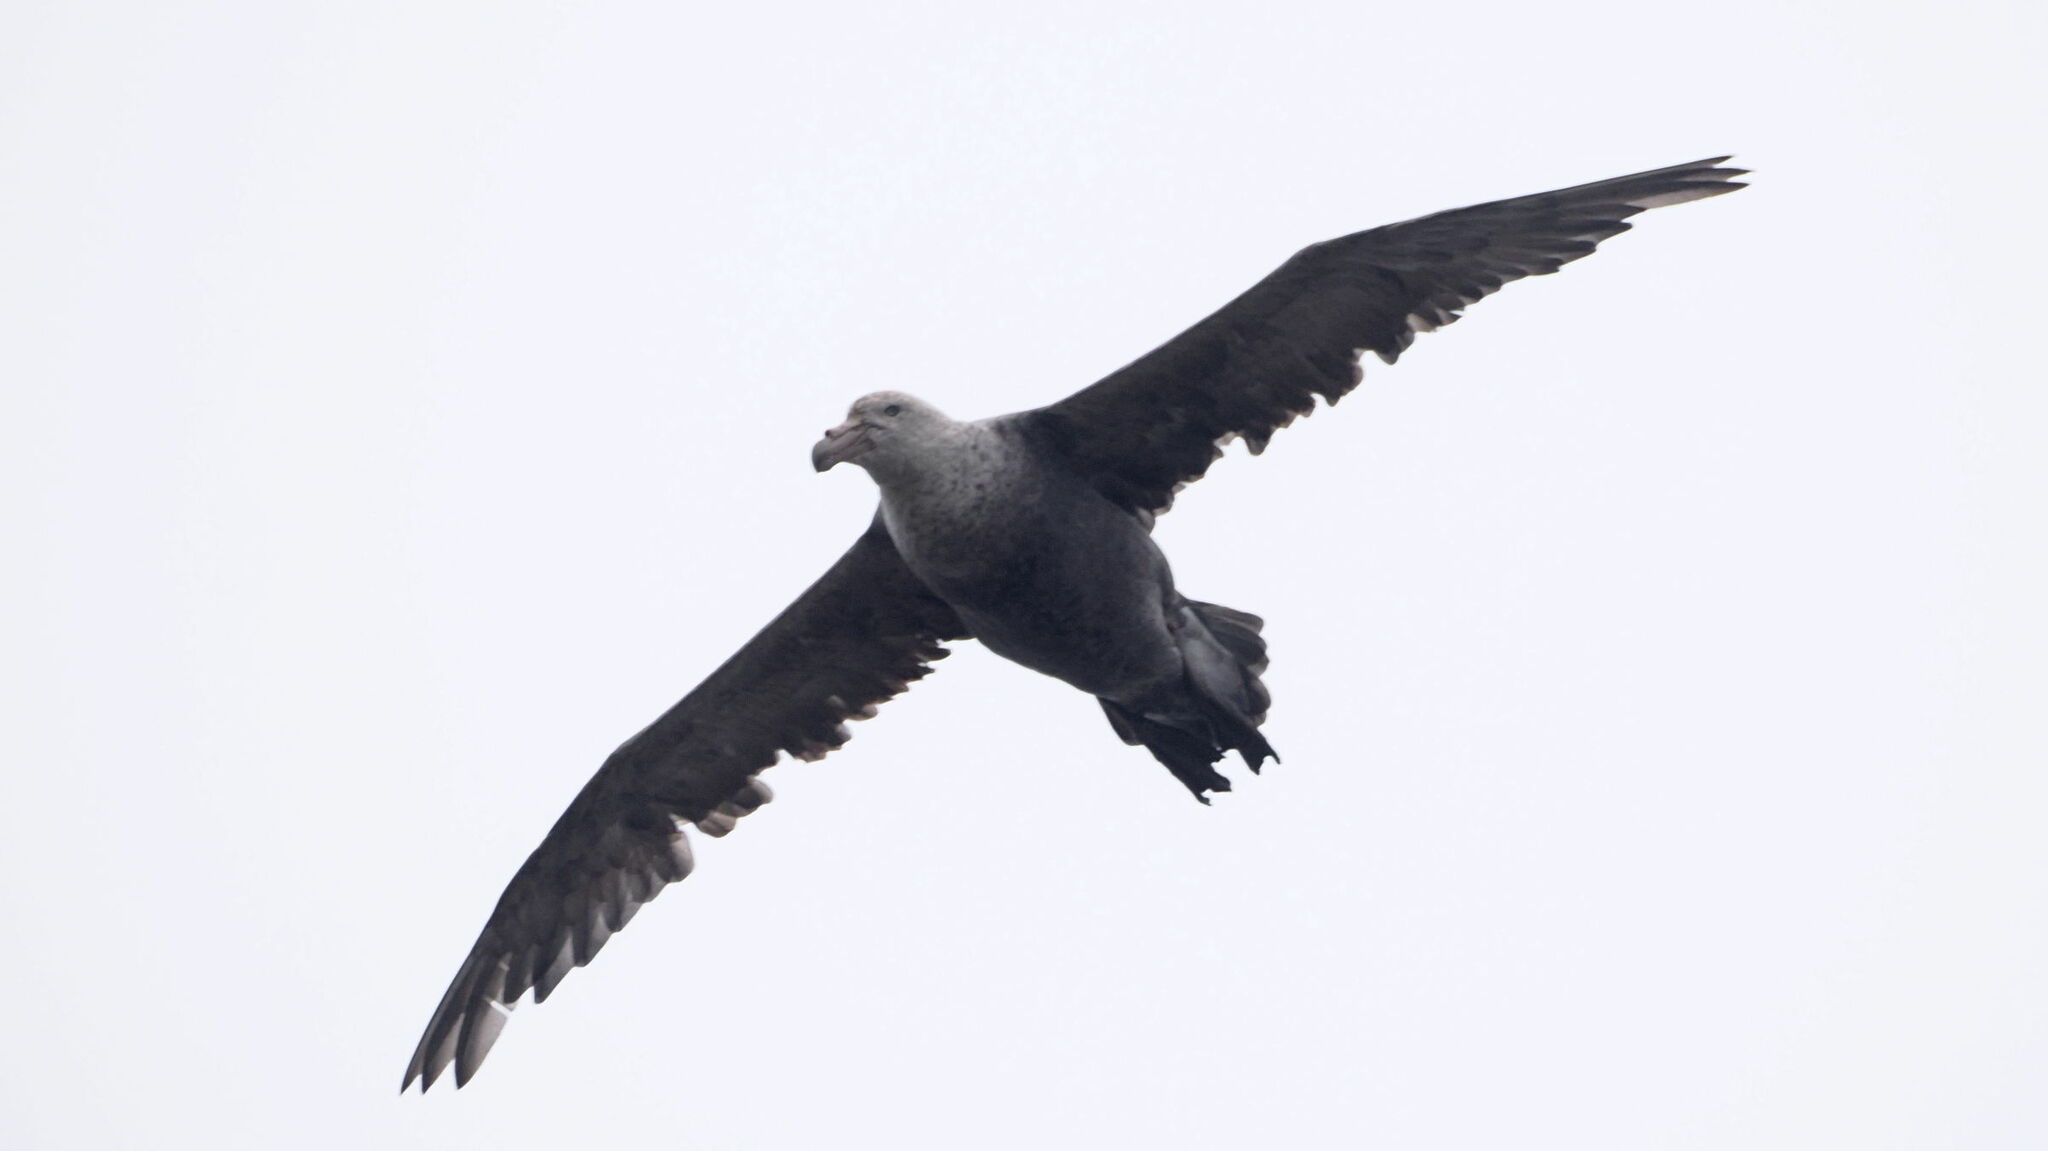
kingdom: Animalia
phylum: Chordata
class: Aves
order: Procellariiformes
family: Procellariidae
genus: Macronectes
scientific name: Macronectes giganteus
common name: Southern giant petrel
